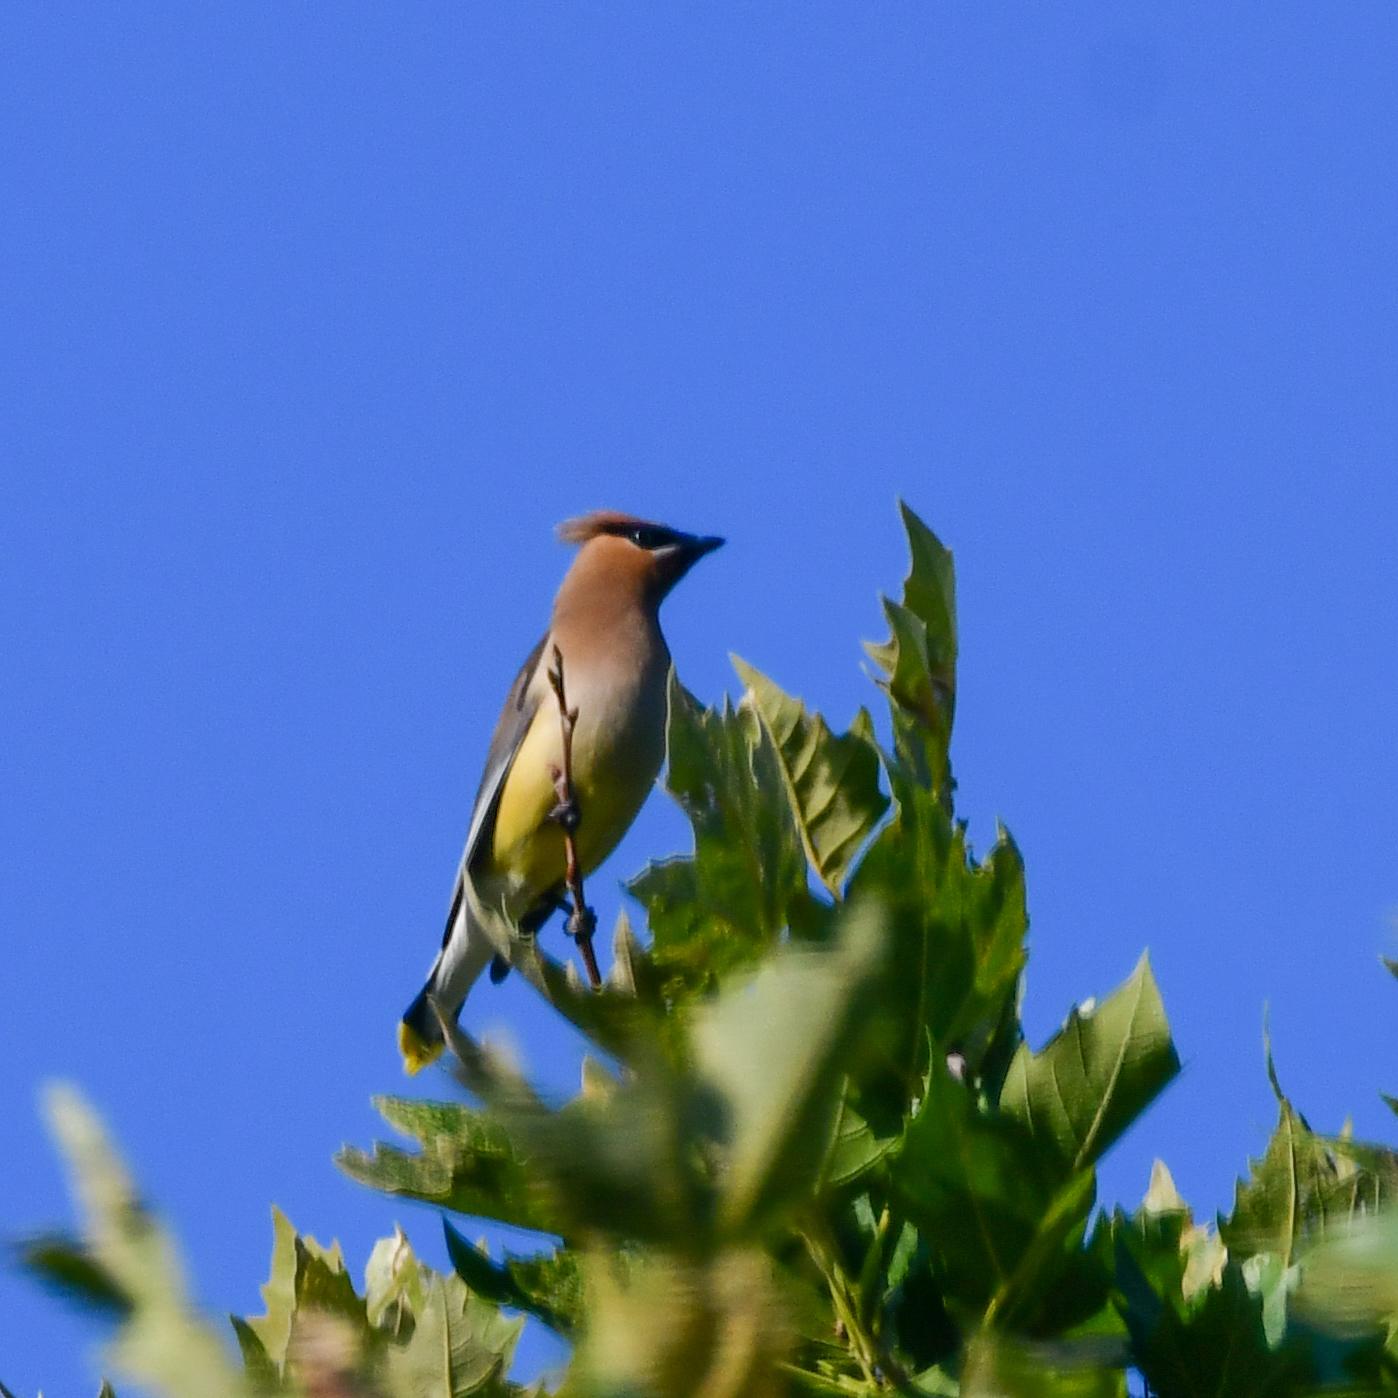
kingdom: Animalia
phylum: Chordata
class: Aves
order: Passeriformes
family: Bombycillidae
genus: Bombycilla
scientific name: Bombycilla cedrorum
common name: Cedar waxwing
